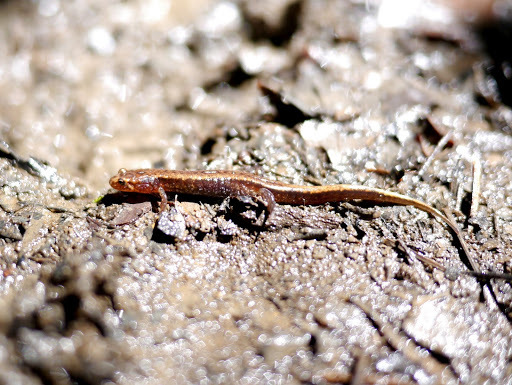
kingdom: Animalia
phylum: Chordata
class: Amphibia
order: Caudata
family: Plethodontidae
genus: Desmognathus
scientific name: Desmognathus ochrophaeus
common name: Allegheny mountain dusky salamander
